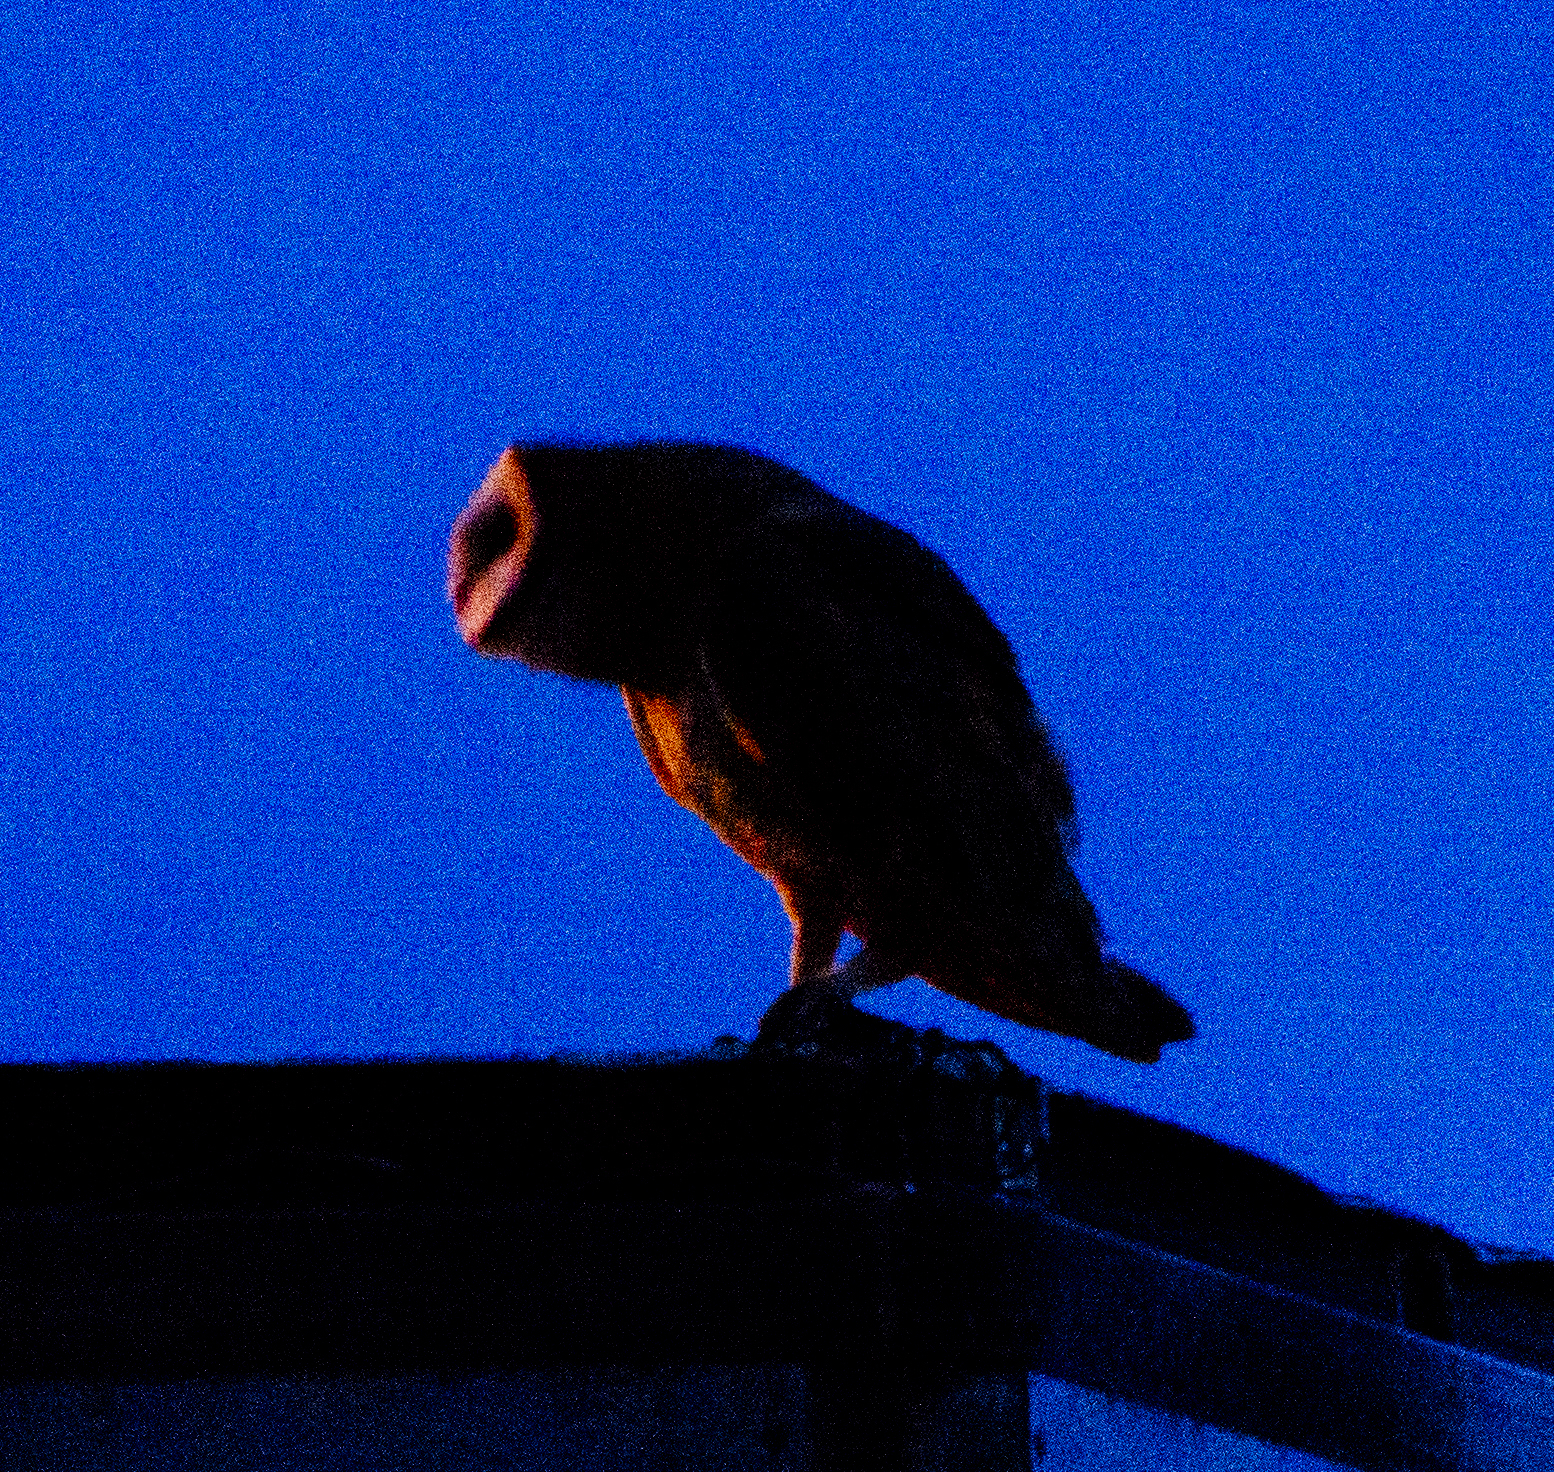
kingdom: Animalia
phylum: Chordata
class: Aves
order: Strigiformes
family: Tytonidae
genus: Tyto
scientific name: Tyto alba
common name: Barn owl
